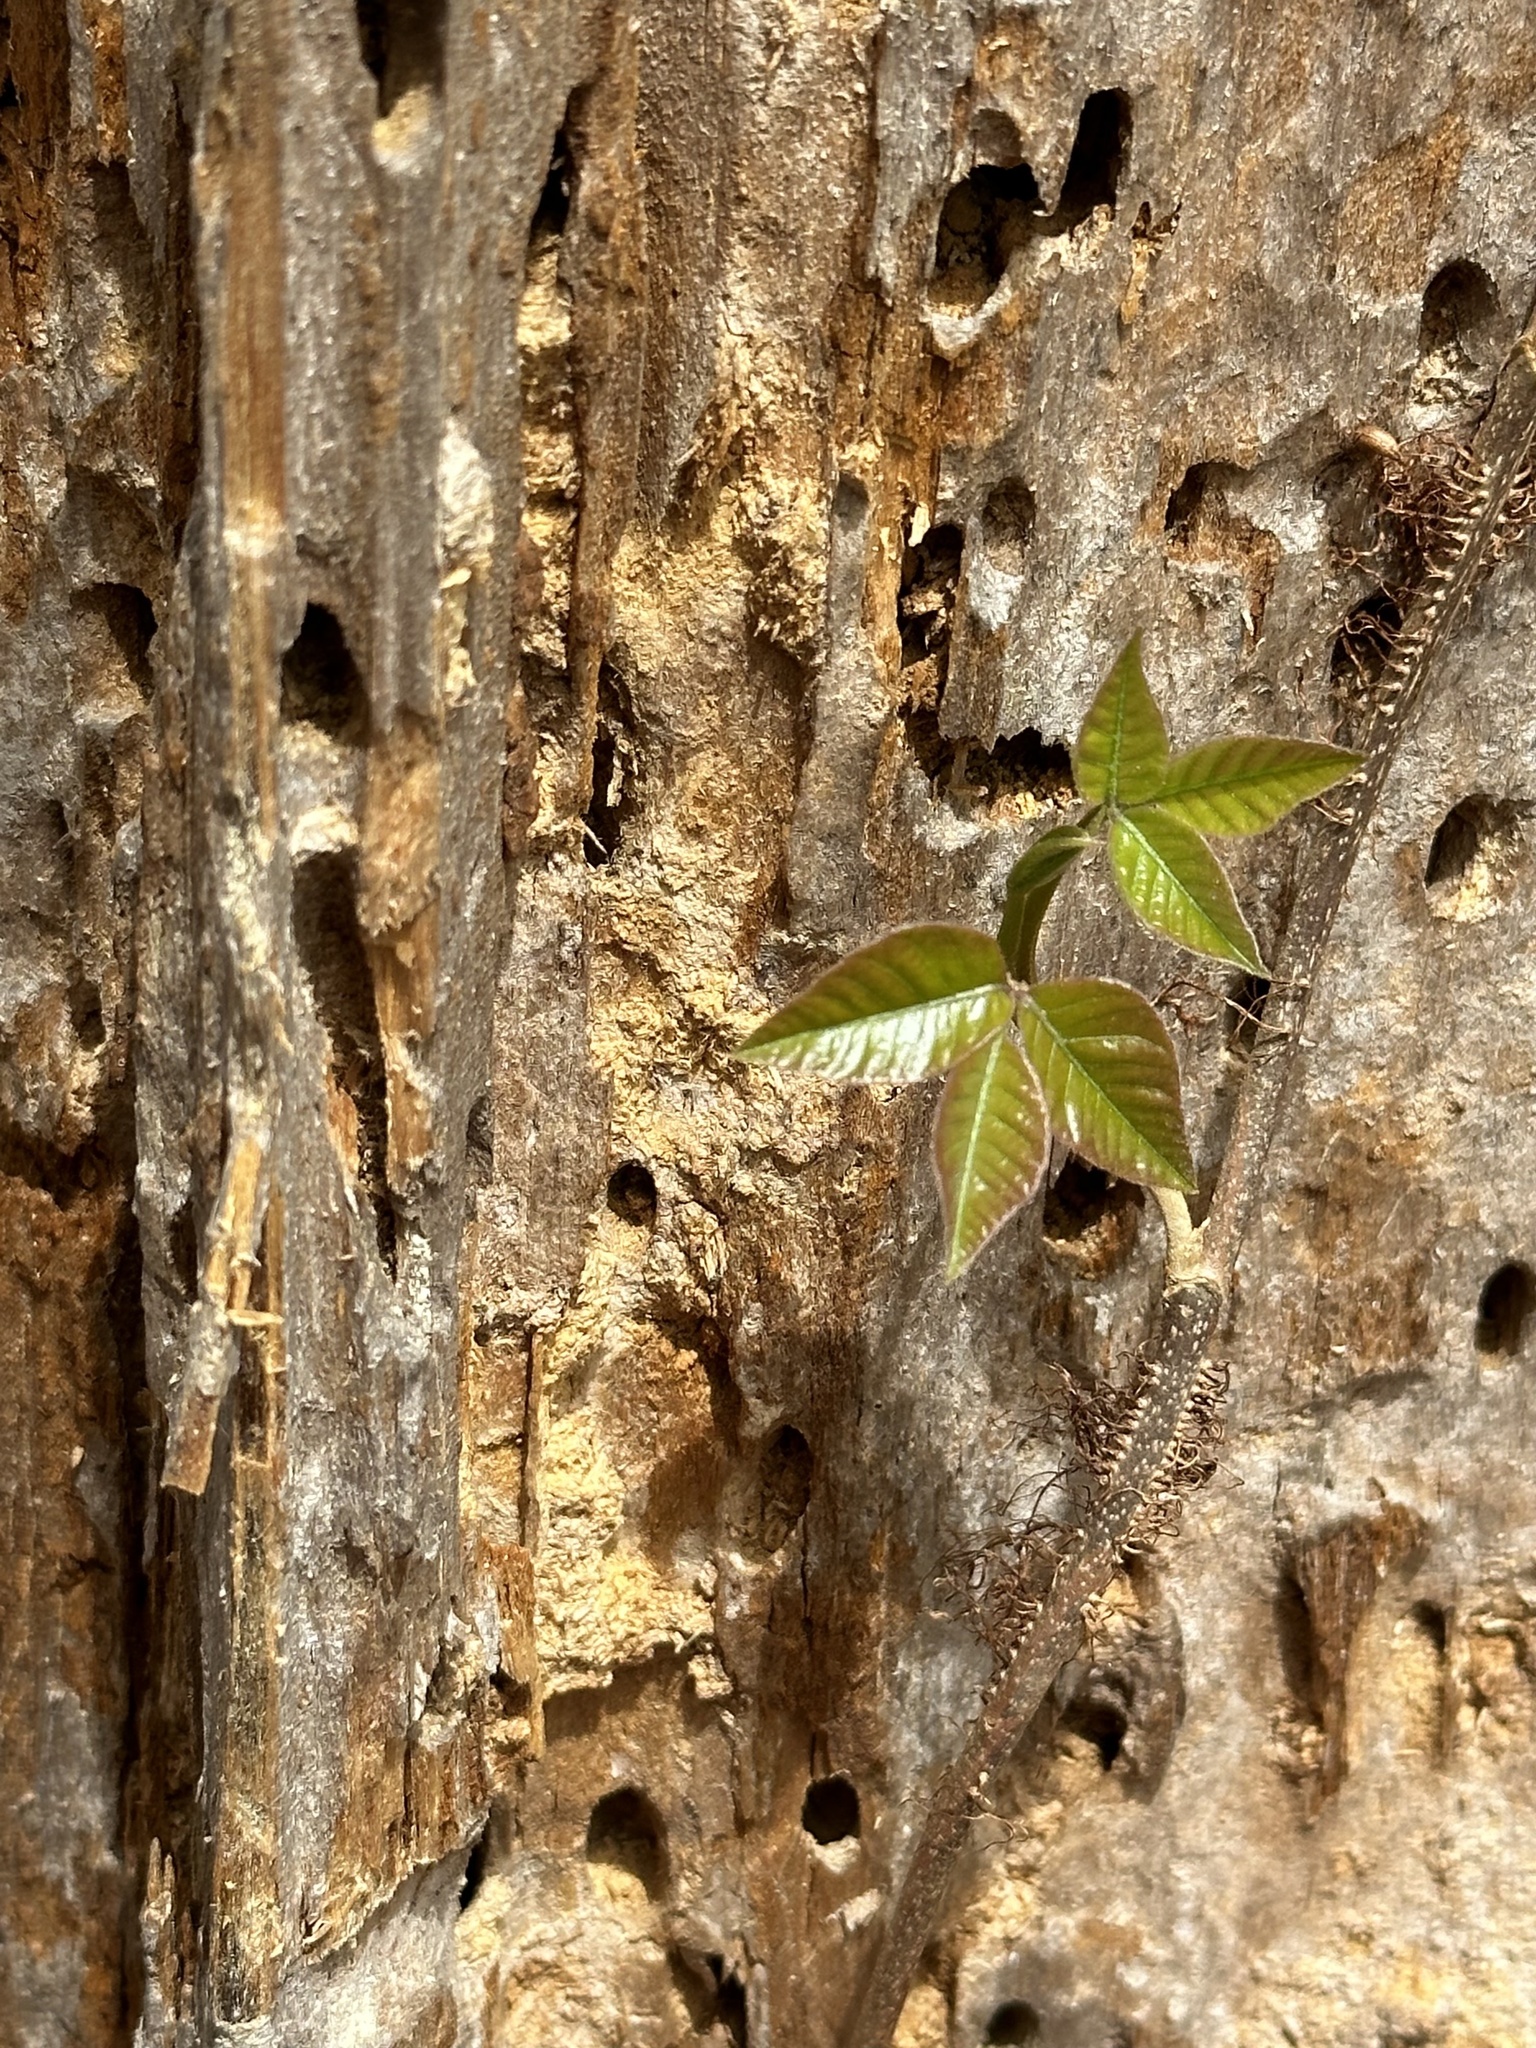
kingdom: Plantae
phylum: Tracheophyta
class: Magnoliopsida
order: Sapindales
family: Anacardiaceae
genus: Toxicodendron
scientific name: Toxicodendron radicans
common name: Poison ivy
